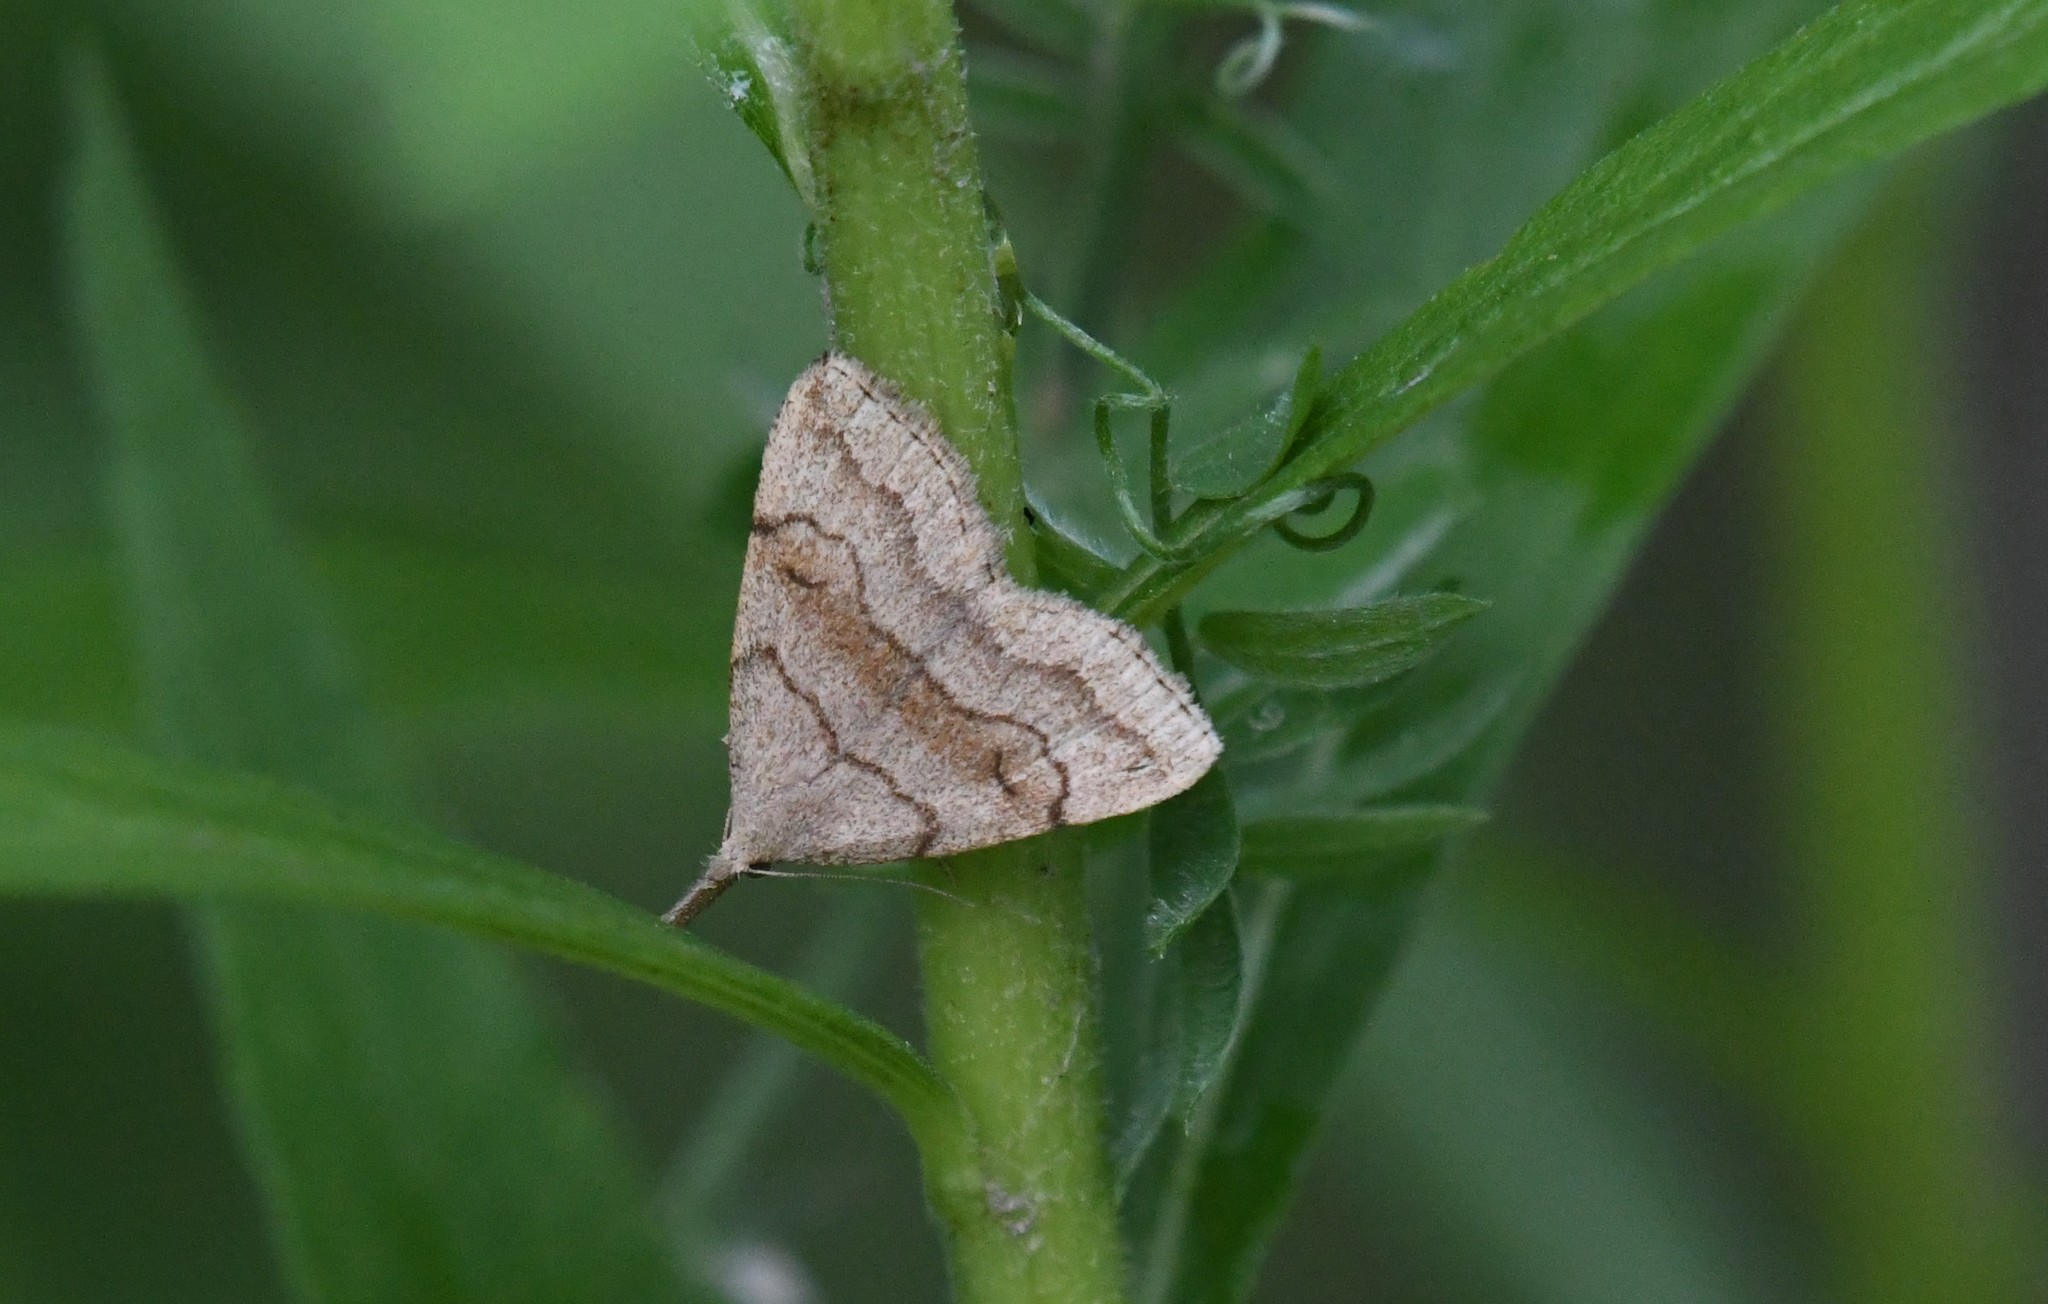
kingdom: Animalia
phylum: Arthropoda
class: Insecta
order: Lepidoptera
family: Erebidae
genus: Phalaenostola
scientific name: Phalaenostola metonalis
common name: Pale phalaenostola moth
